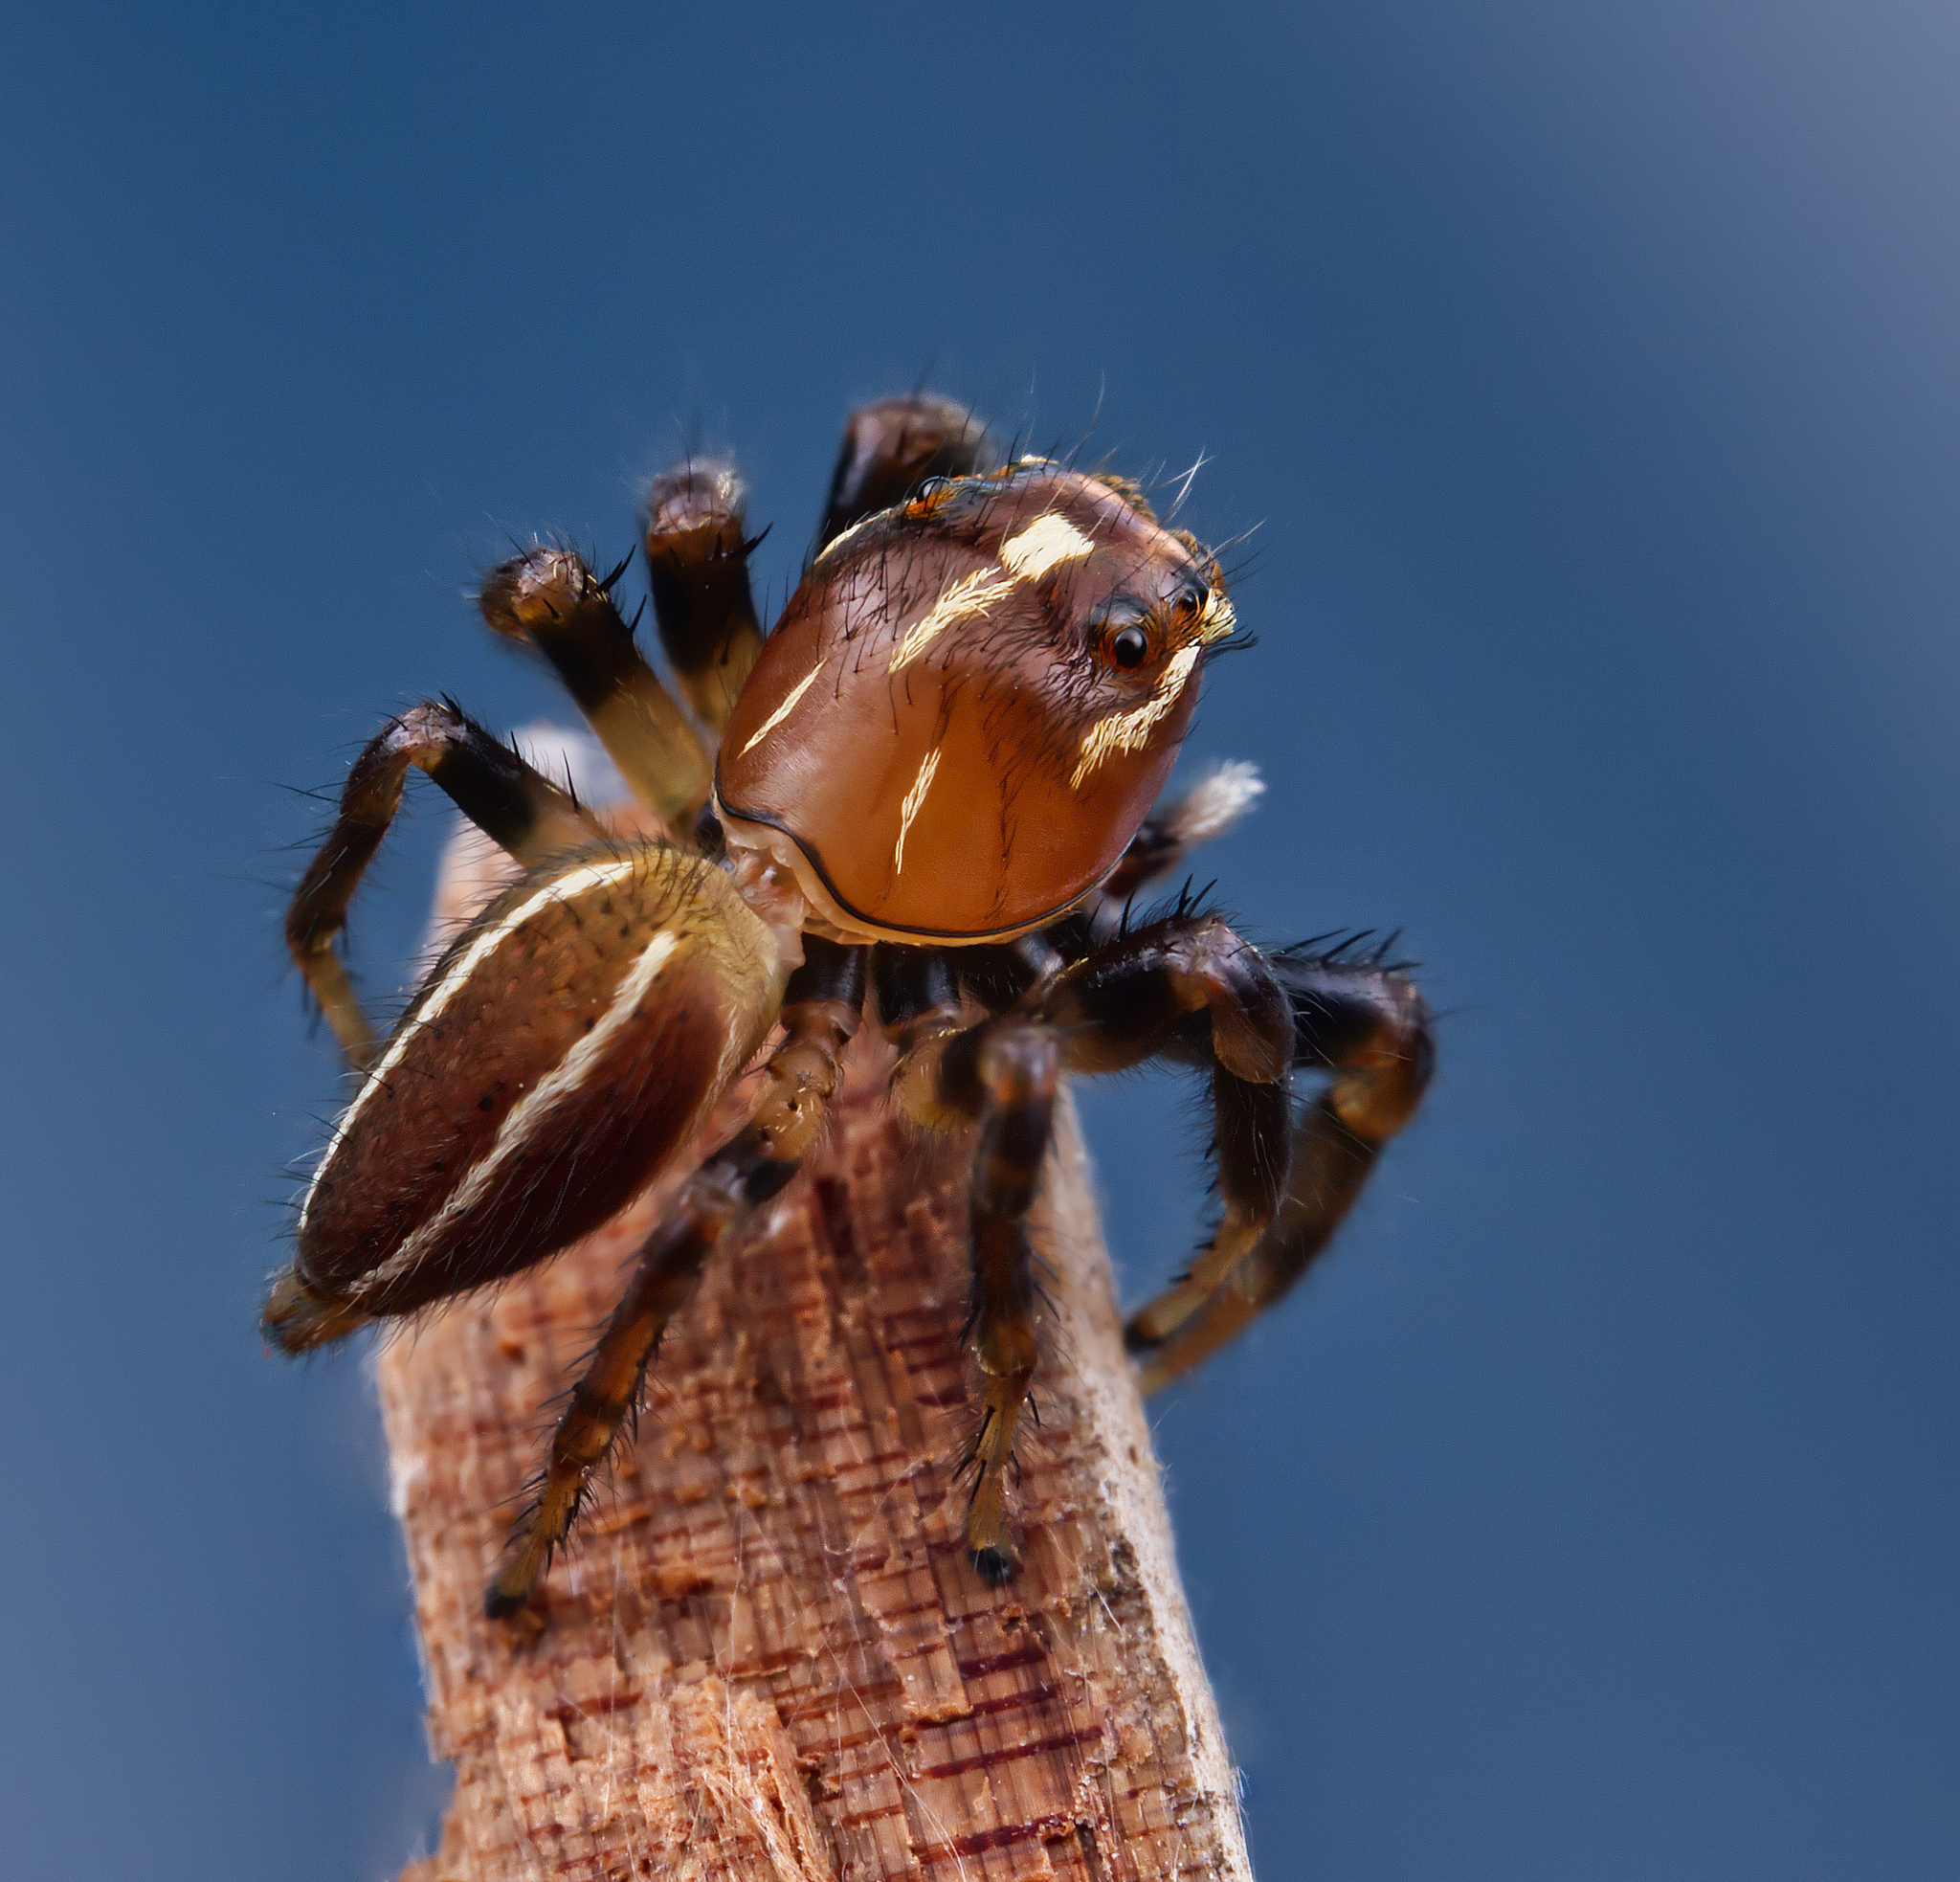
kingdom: Animalia
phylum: Arthropoda
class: Arachnida
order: Araneae
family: Salticidae
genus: Colonus
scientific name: Colonus puerperus
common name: Jumping spiders
